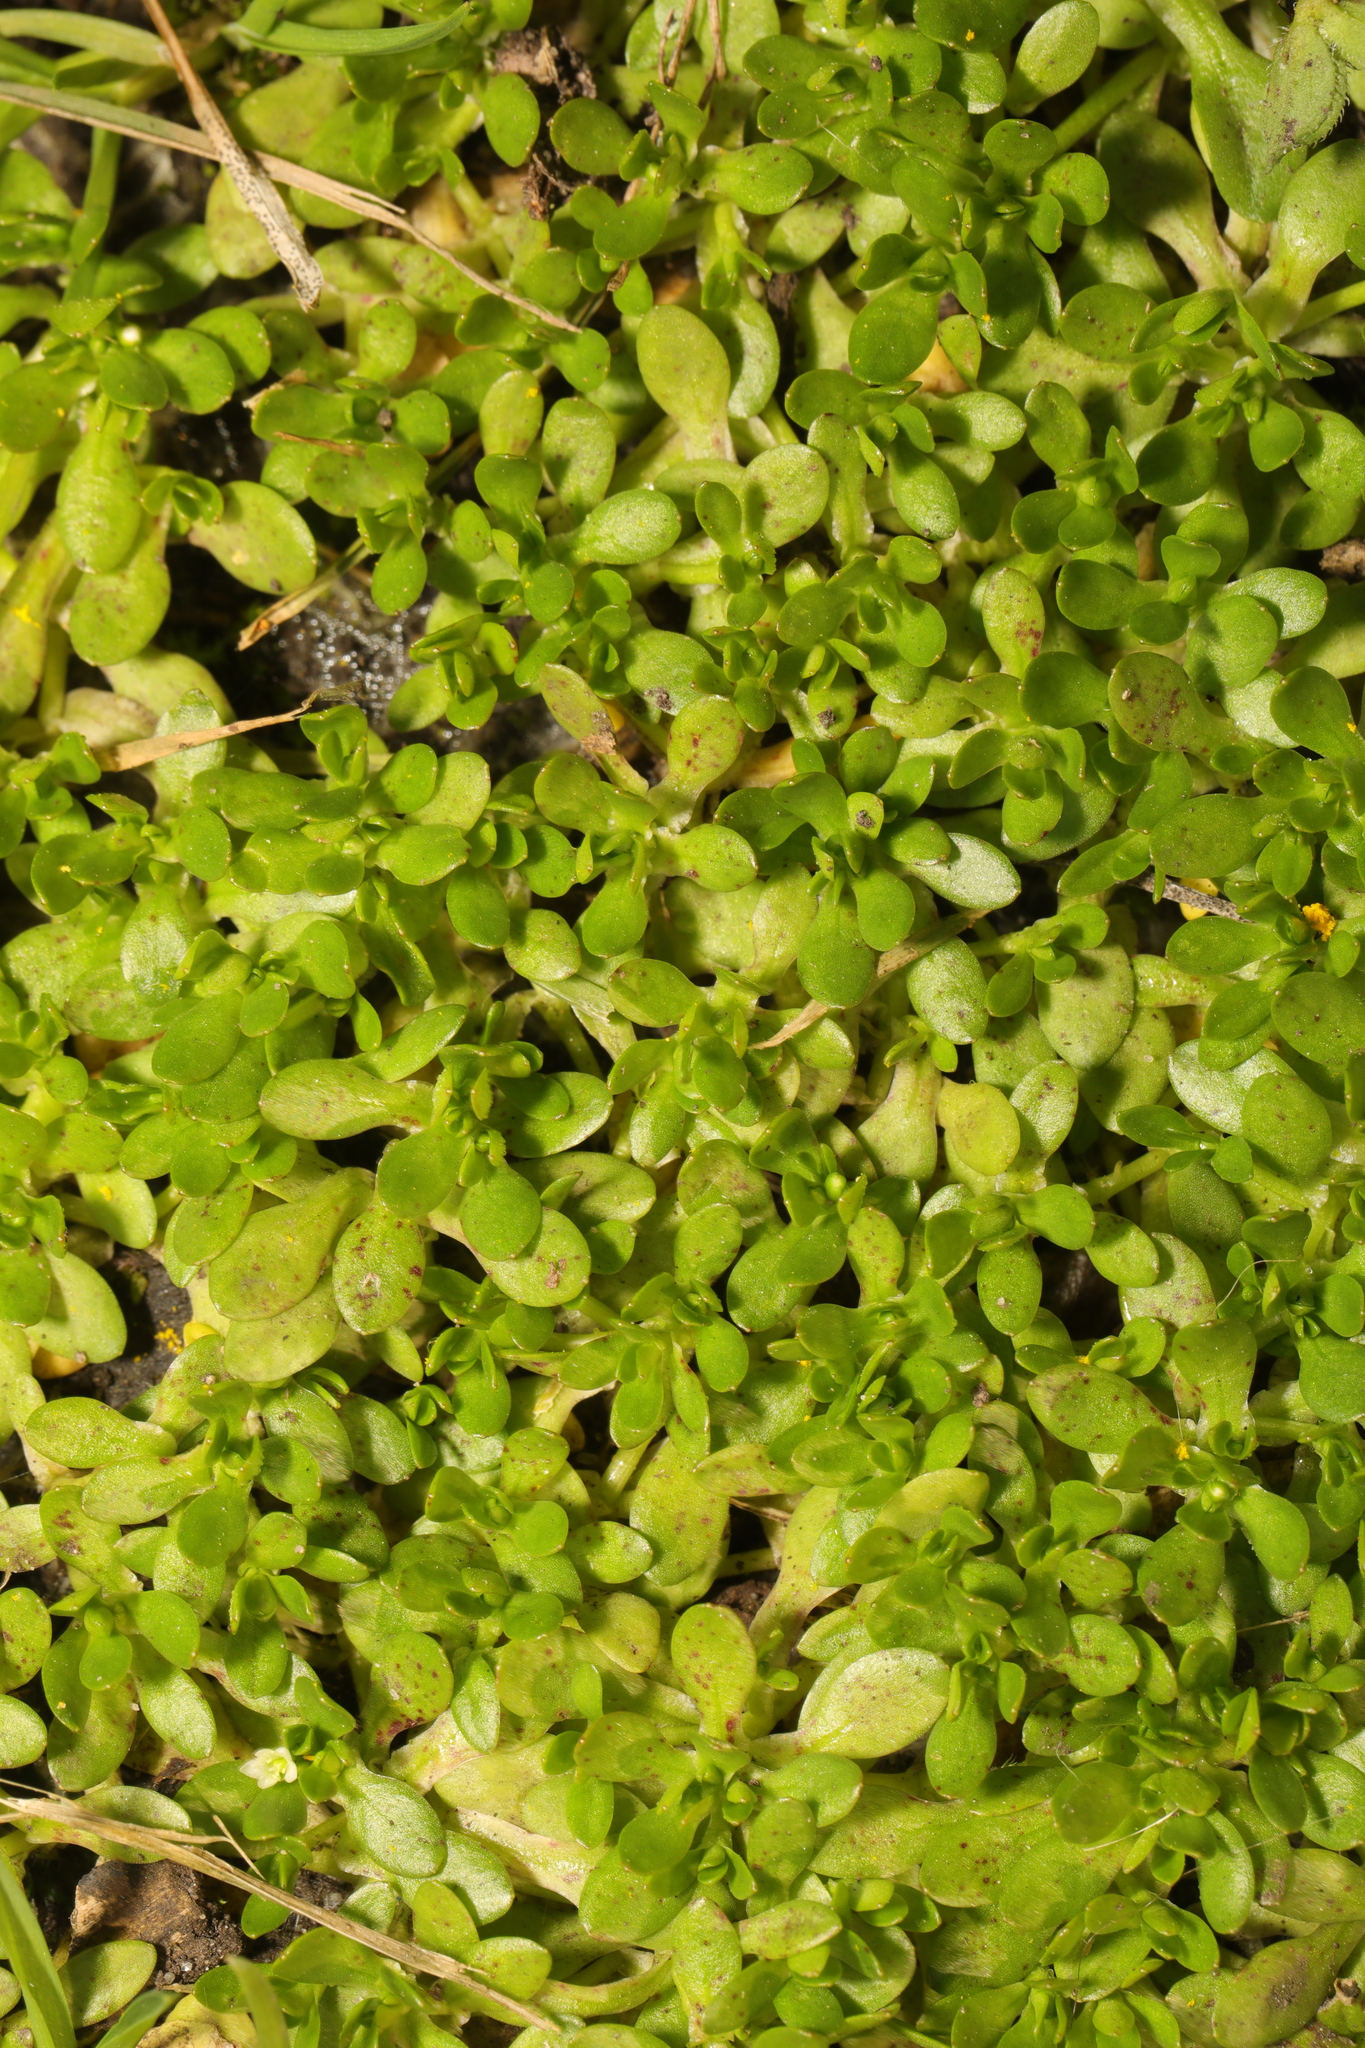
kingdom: Plantae
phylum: Tracheophyta
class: Magnoliopsida
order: Caryophyllales
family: Montiaceae
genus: Montia
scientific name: Montia fontana
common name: Blinks
